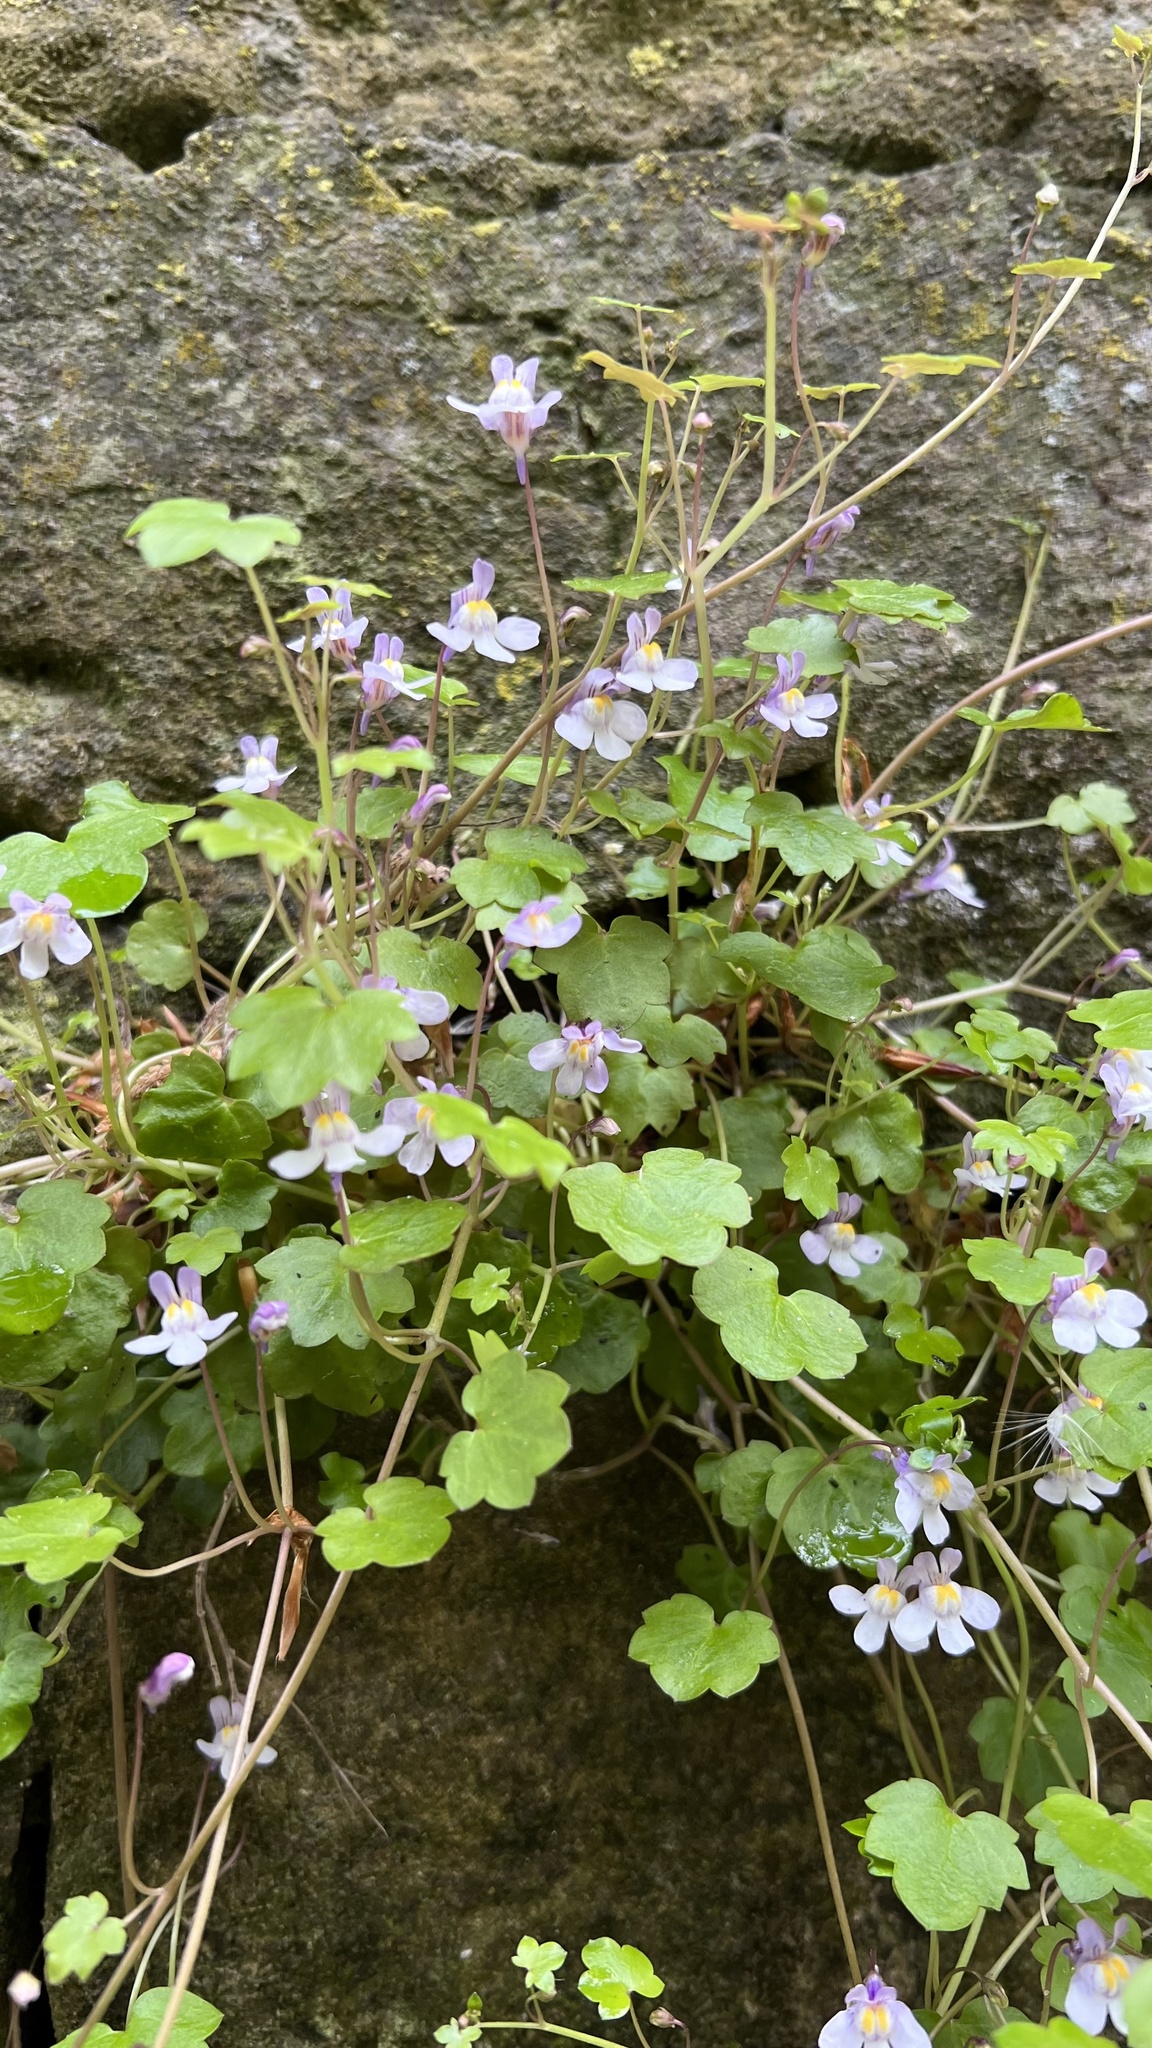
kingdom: Plantae
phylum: Tracheophyta
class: Magnoliopsida
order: Lamiales
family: Plantaginaceae
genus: Cymbalaria
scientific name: Cymbalaria muralis
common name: Ivy-leaved toadflax
